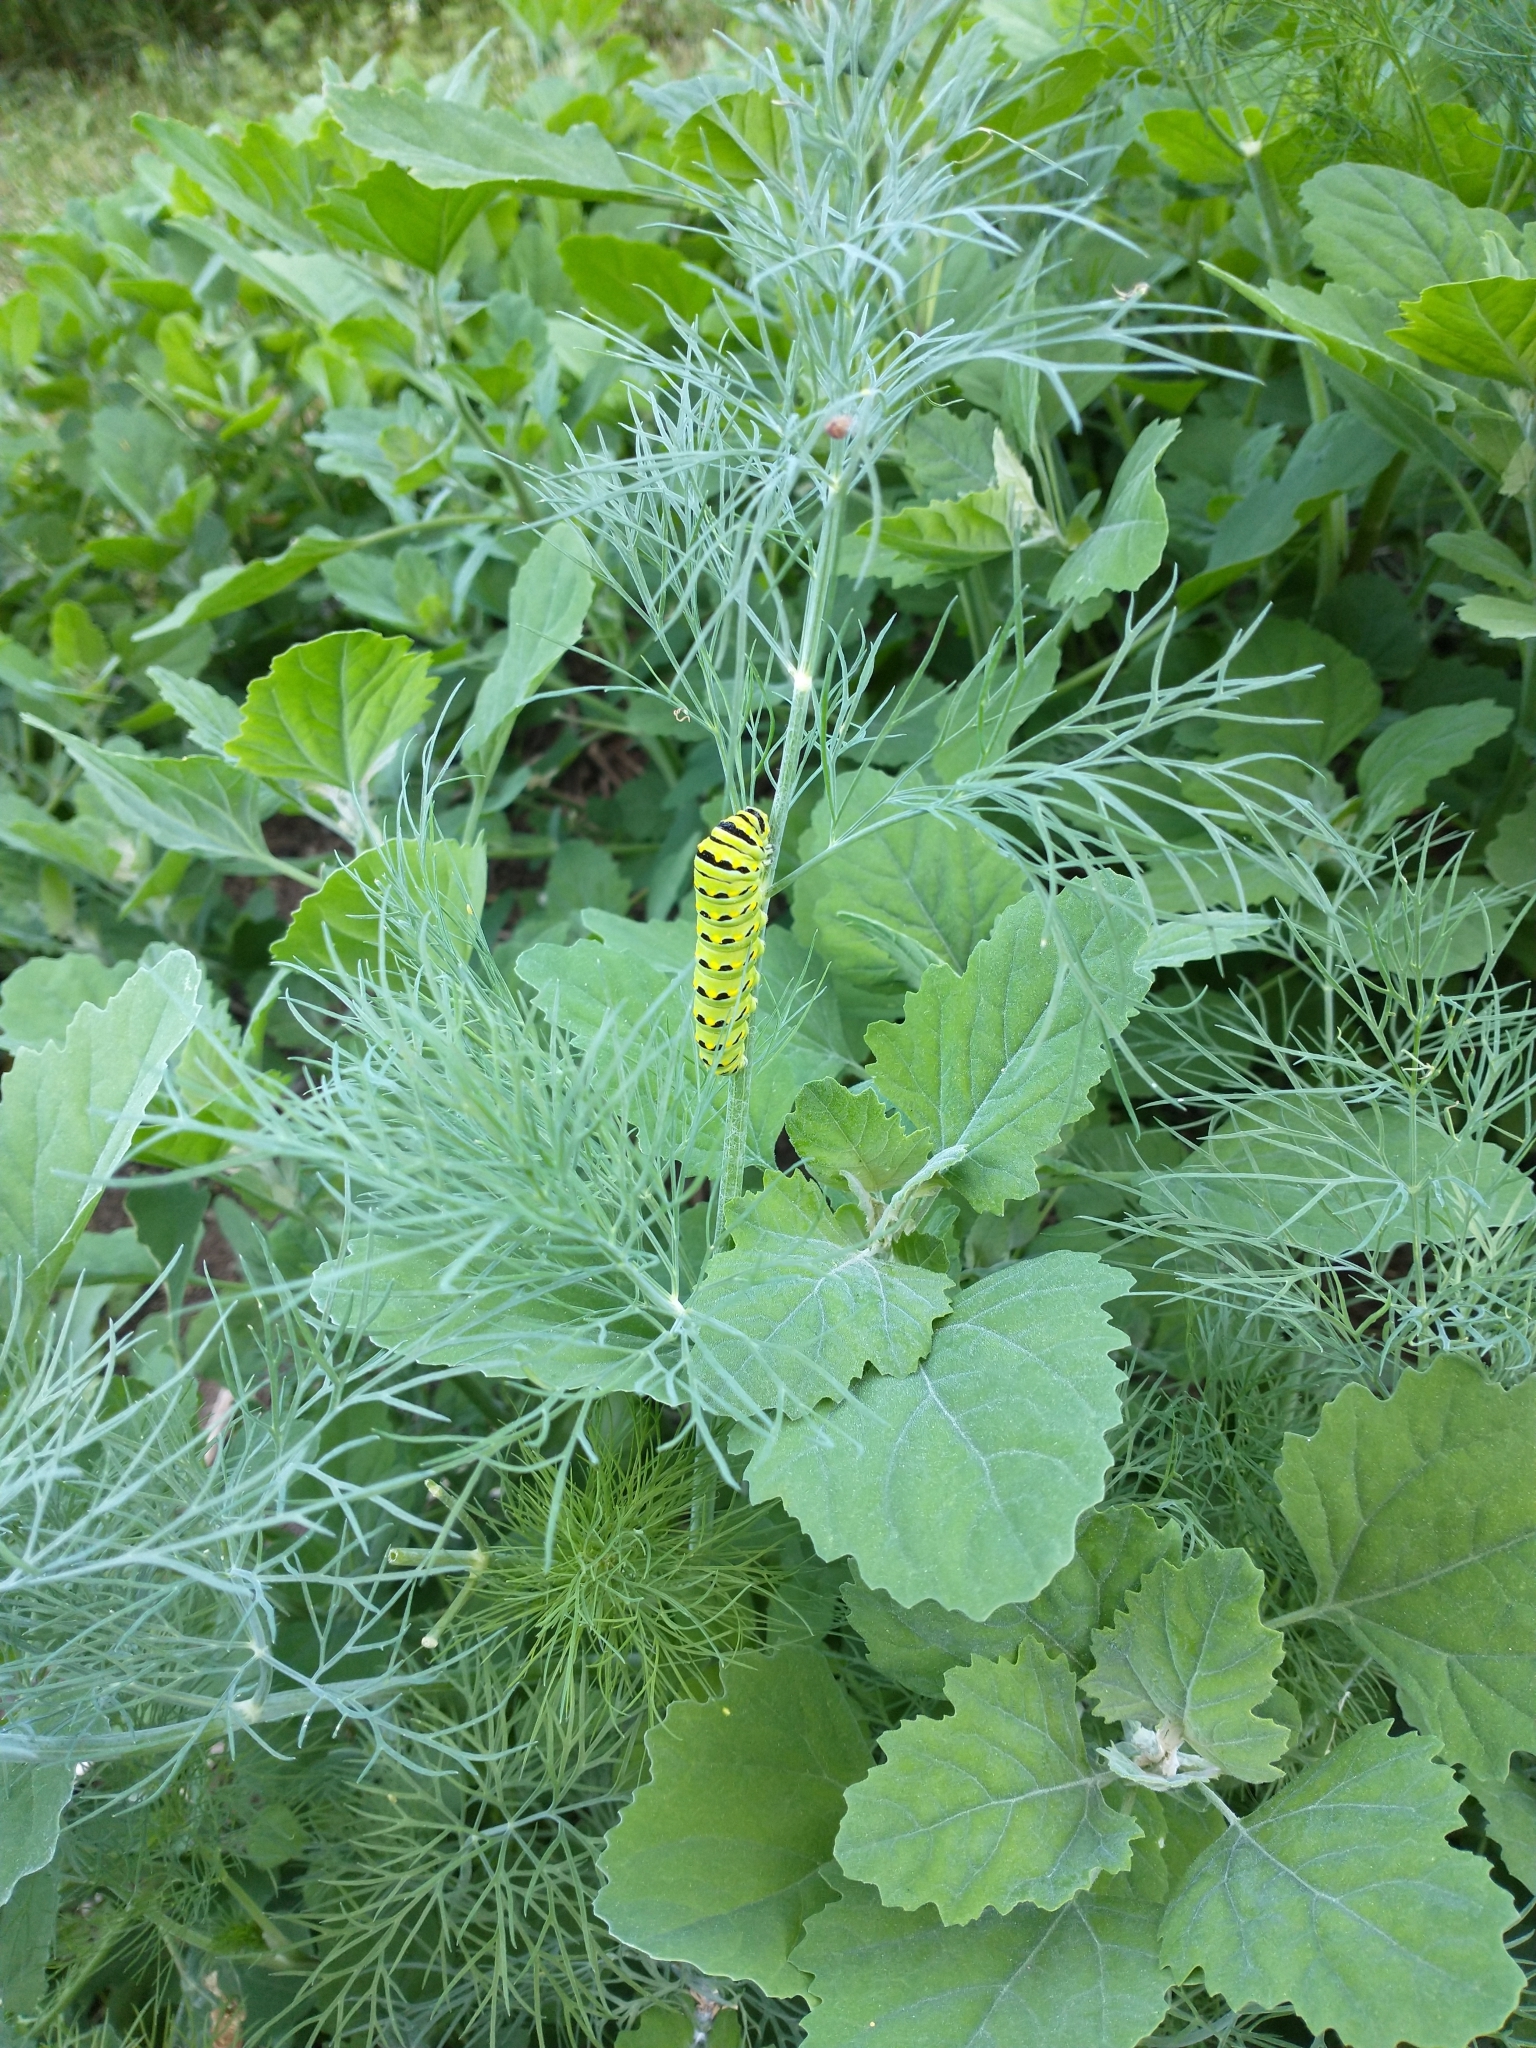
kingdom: Animalia
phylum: Arthropoda
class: Insecta
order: Lepidoptera
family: Papilionidae
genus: Papilio
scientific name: Papilio polyxenes
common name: Black swallowtail
